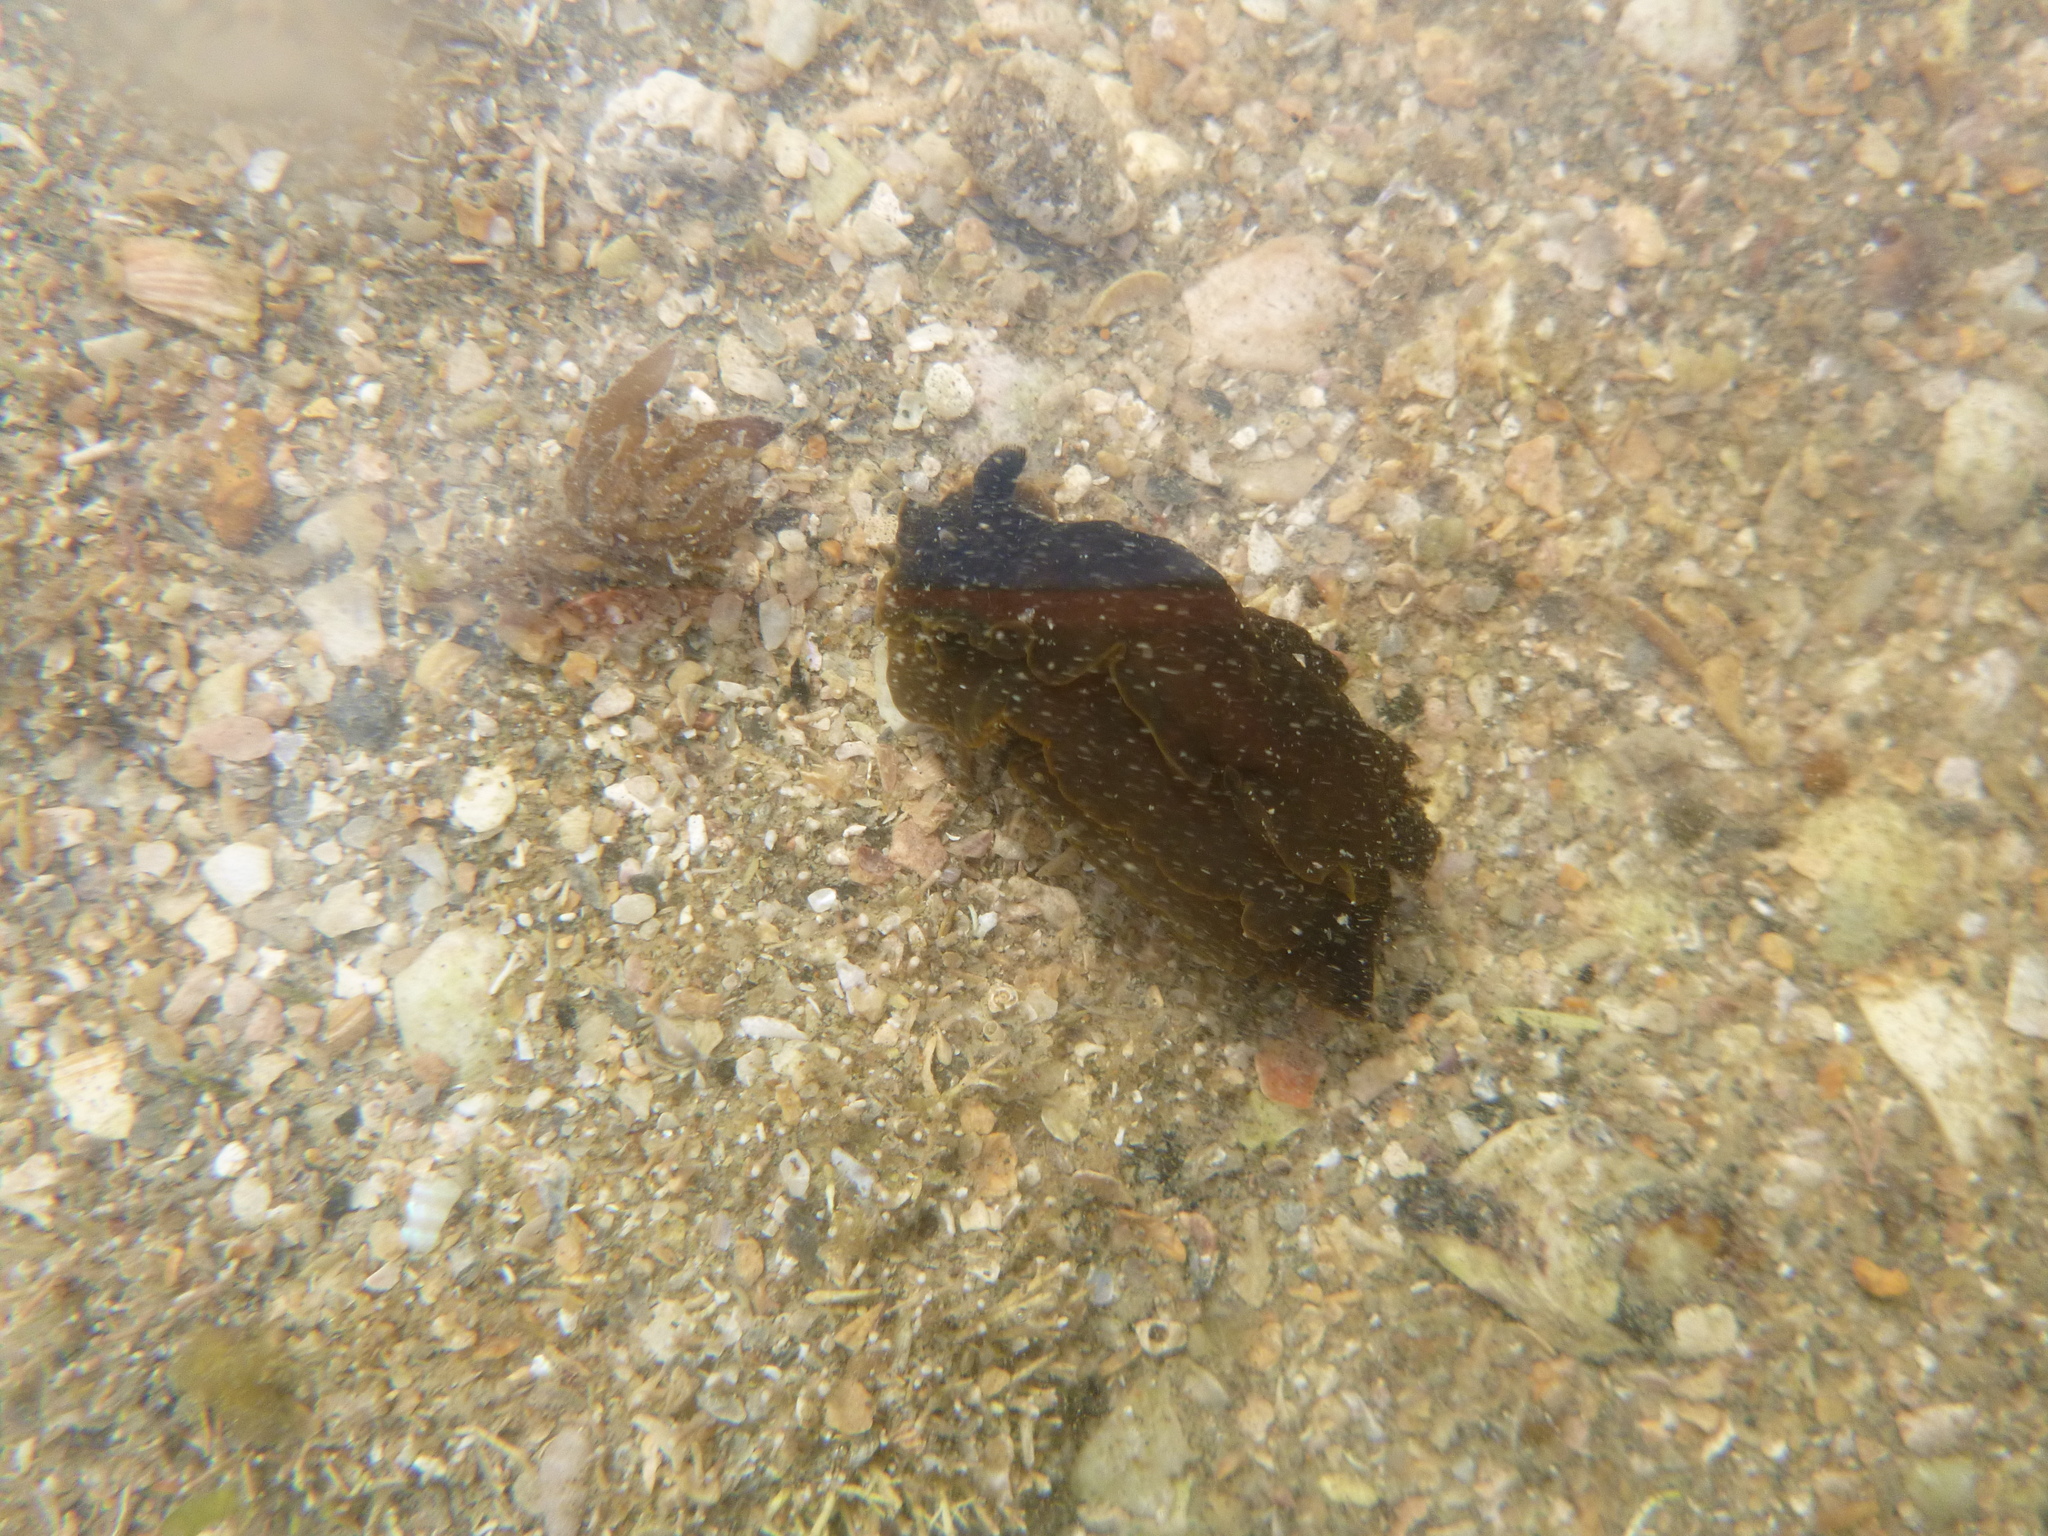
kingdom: Animalia
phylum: Mollusca
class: Gastropoda
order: Nudibranchia
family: Dendrodorididae
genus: Dendrodoris
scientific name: Dendrodoris nigra
